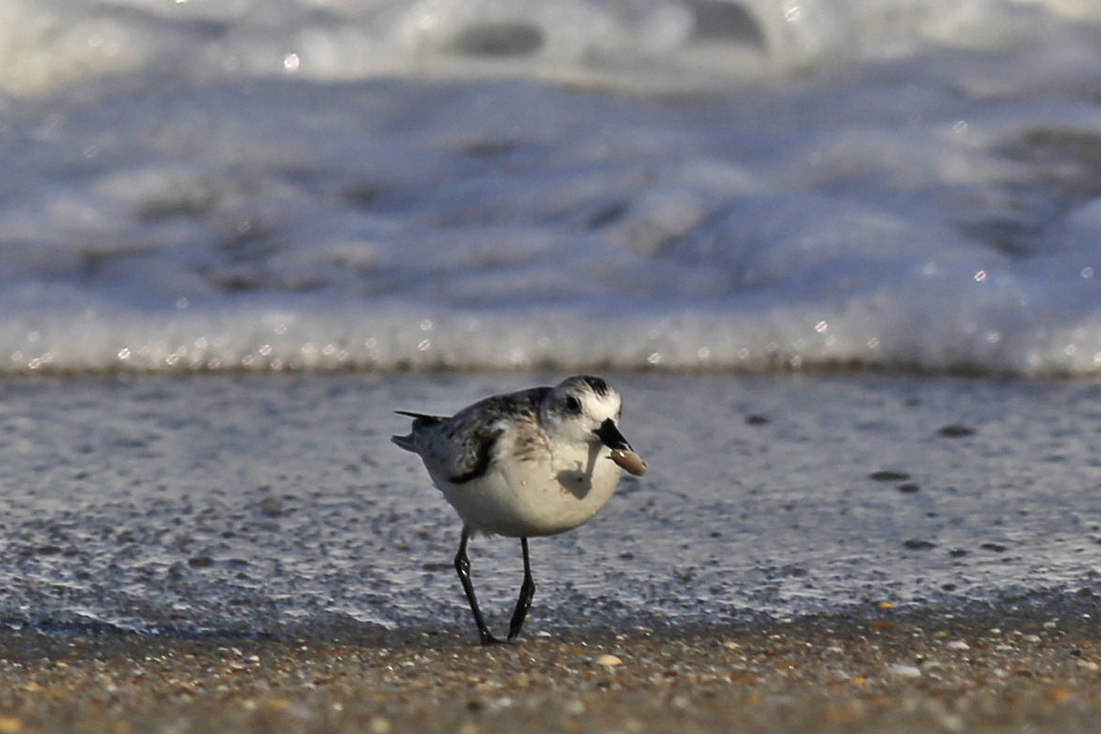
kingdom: Animalia
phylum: Chordata
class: Aves
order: Charadriiformes
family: Scolopacidae
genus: Calidris
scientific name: Calidris alba
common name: Sanderling
